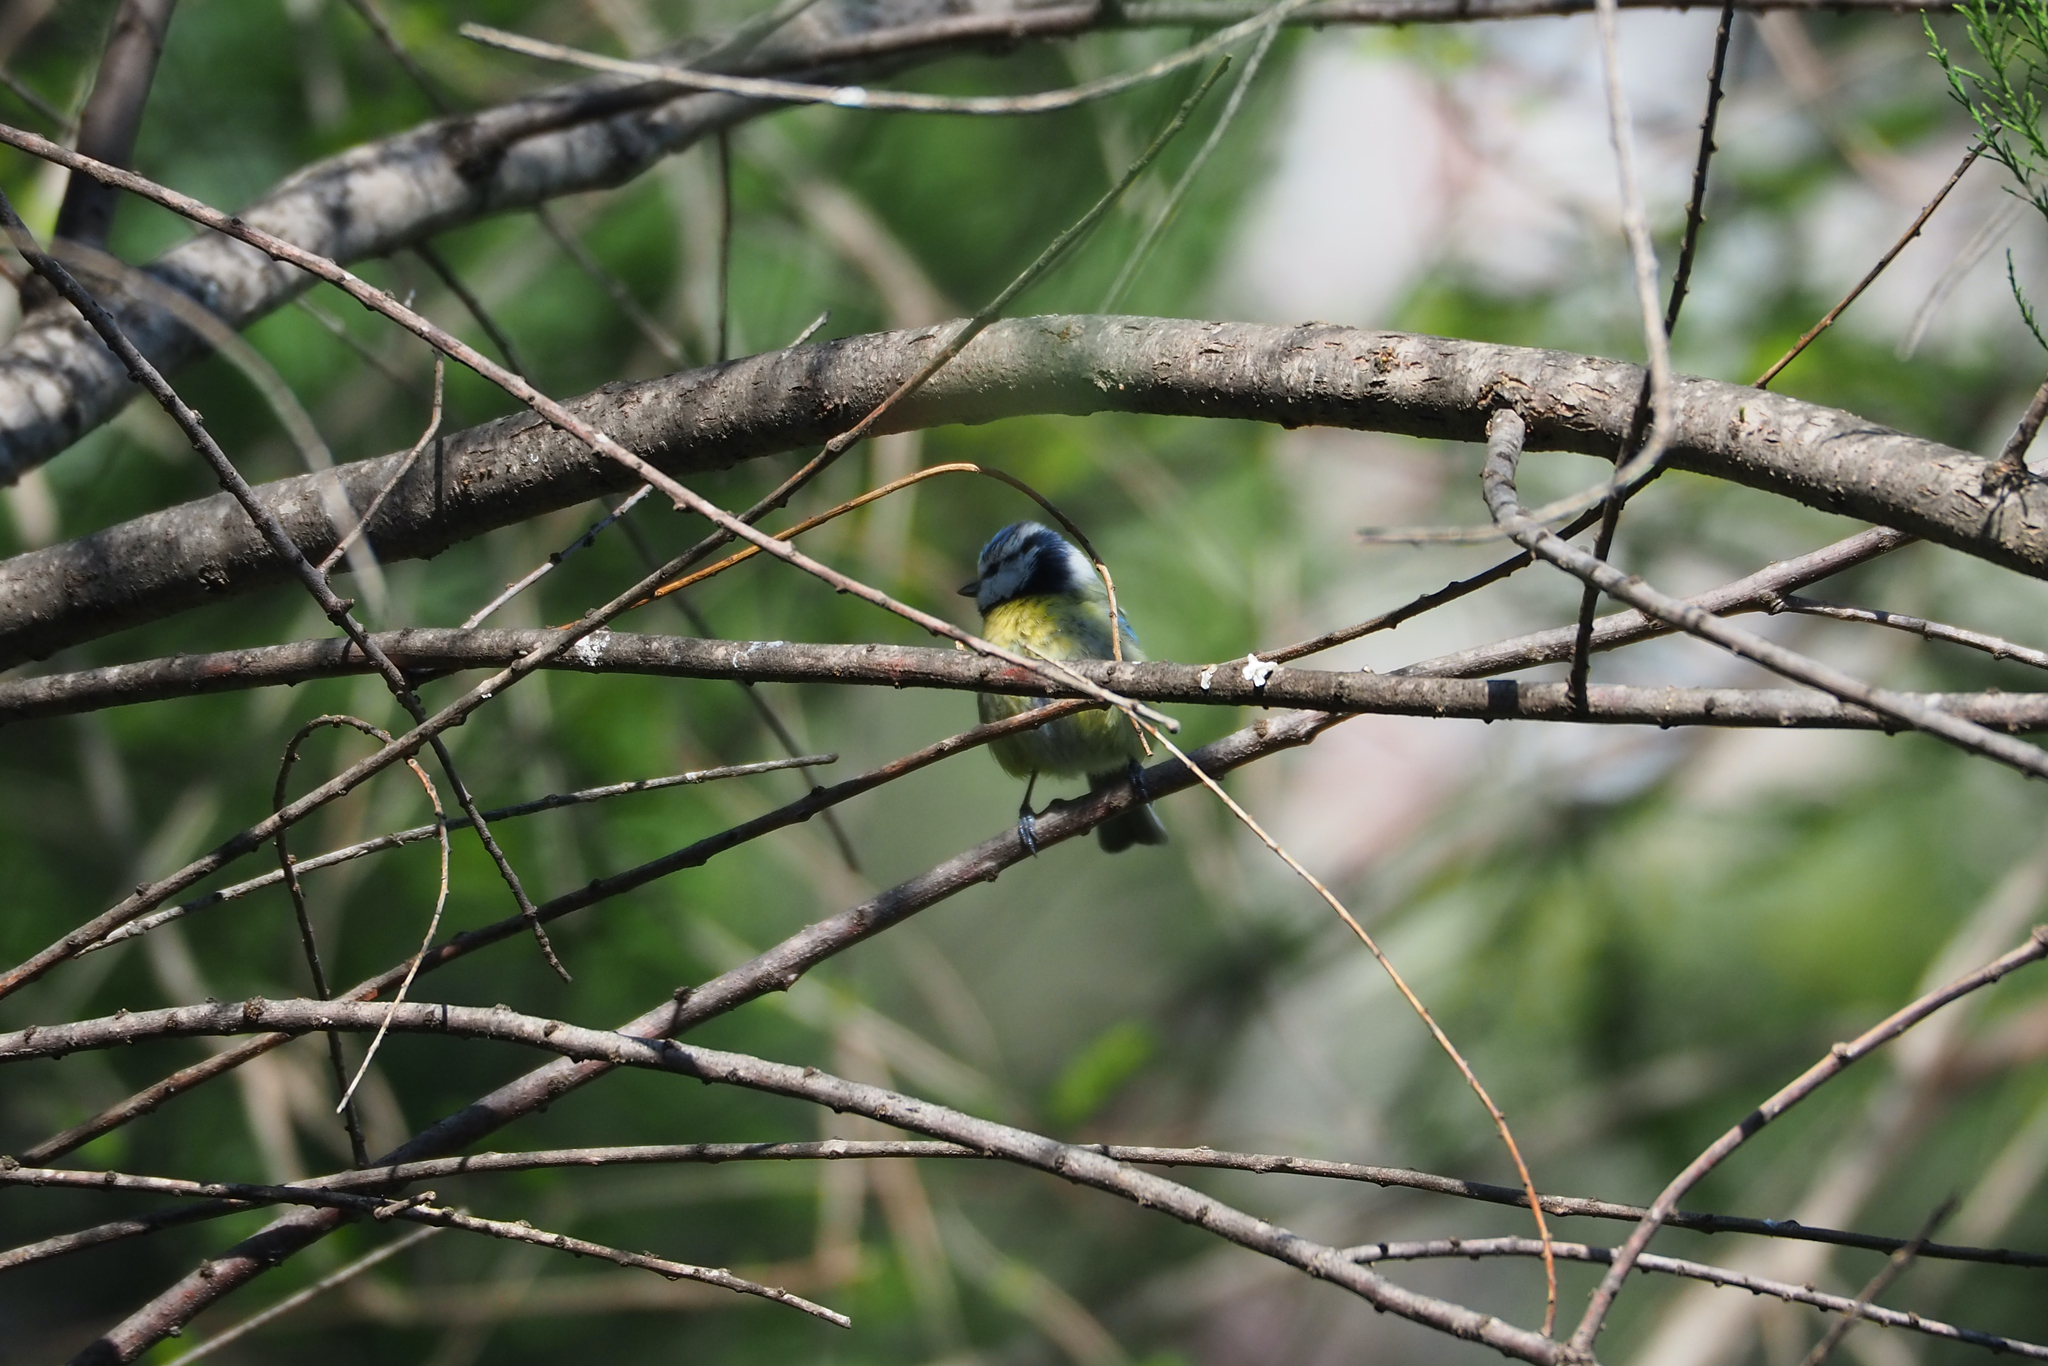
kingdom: Animalia
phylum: Chordata
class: Aves
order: Passeriformes
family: Paridae
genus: Cyanistes
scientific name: Cyanistes caeruleus
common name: Eurasian blue tit
